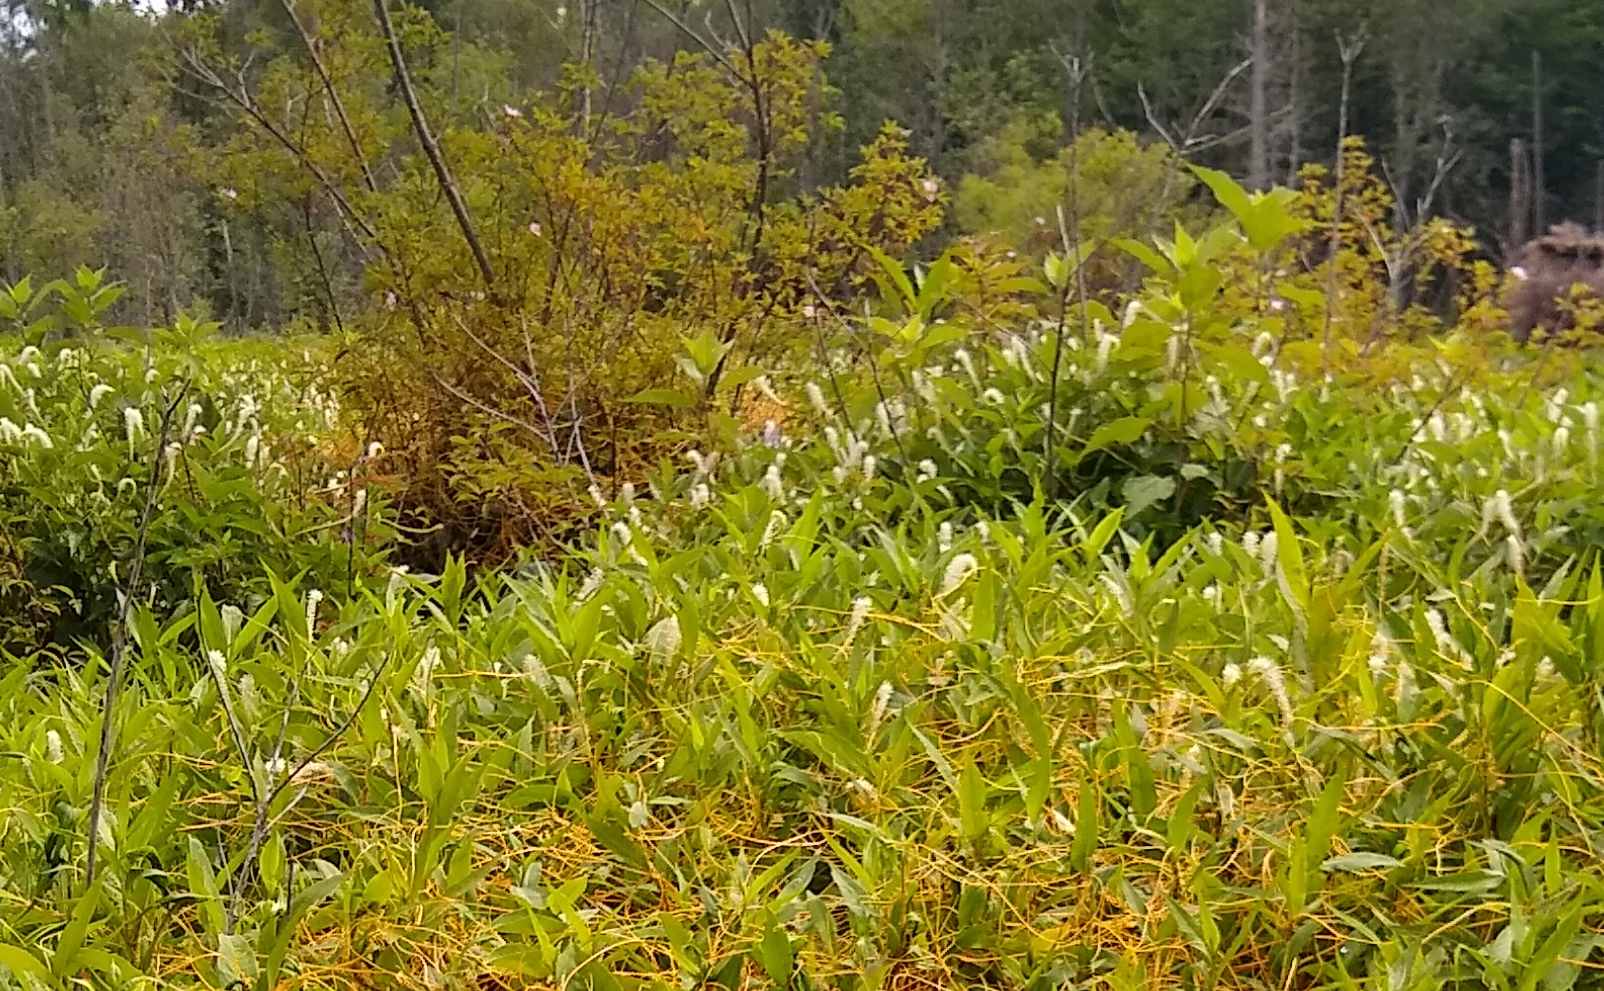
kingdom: Plantae
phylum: Tracheophyta
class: Magnoliopsida
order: Piperales
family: Saururaceae
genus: Saururus
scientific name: Saururus cernuus
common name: Lizard's-tail
